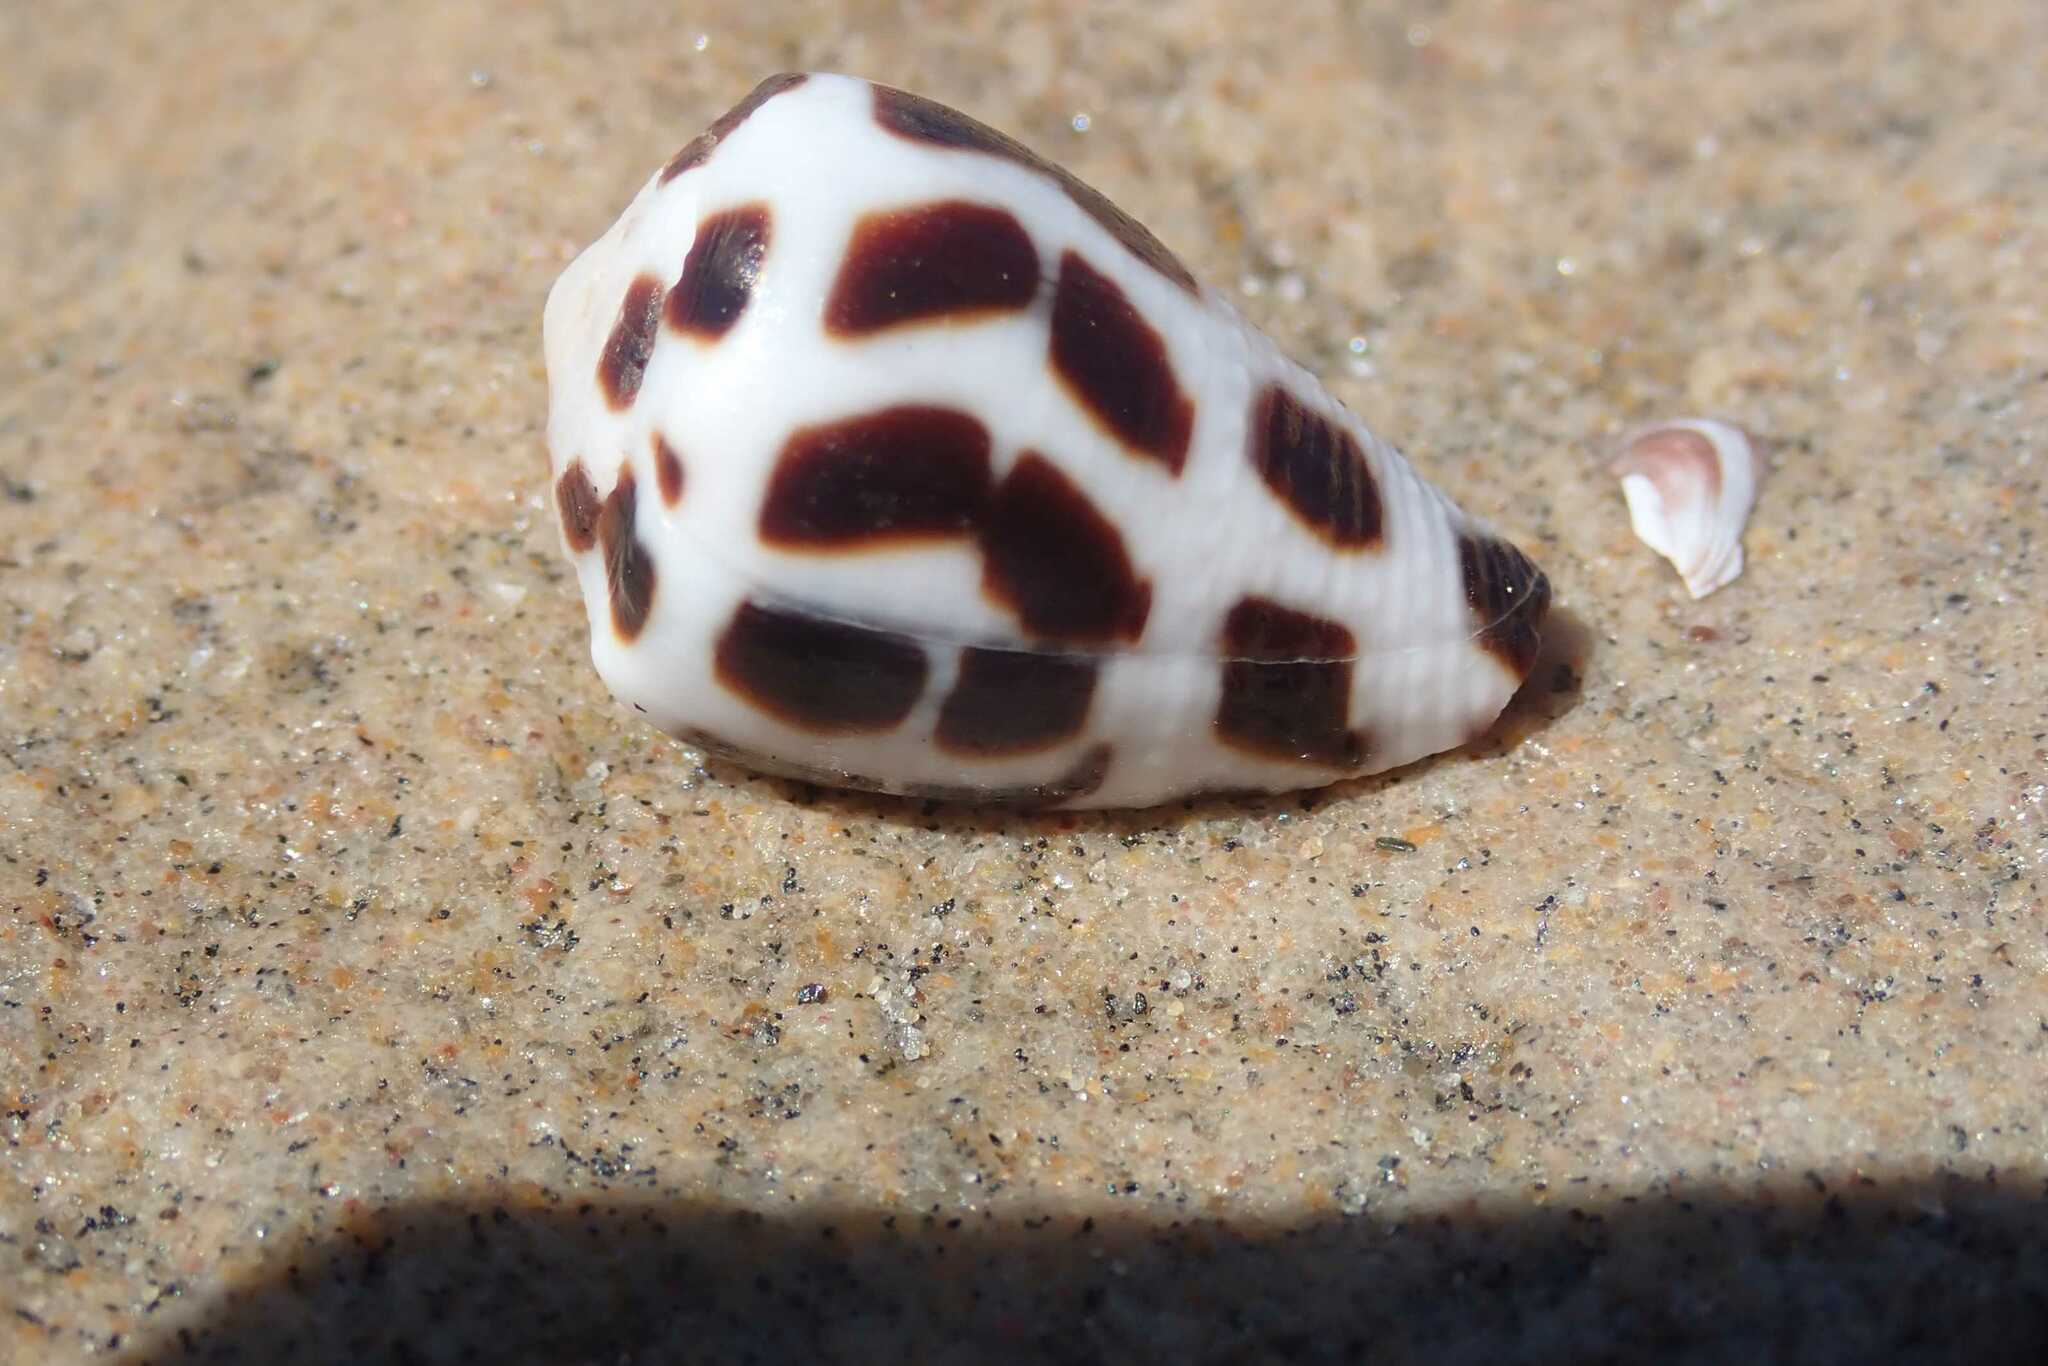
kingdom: Animalia
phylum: Mollusca
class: Gastropoda
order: Neogastropoda
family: Conidae
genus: Conus
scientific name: Conus ebraeus
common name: Hebrew cone
